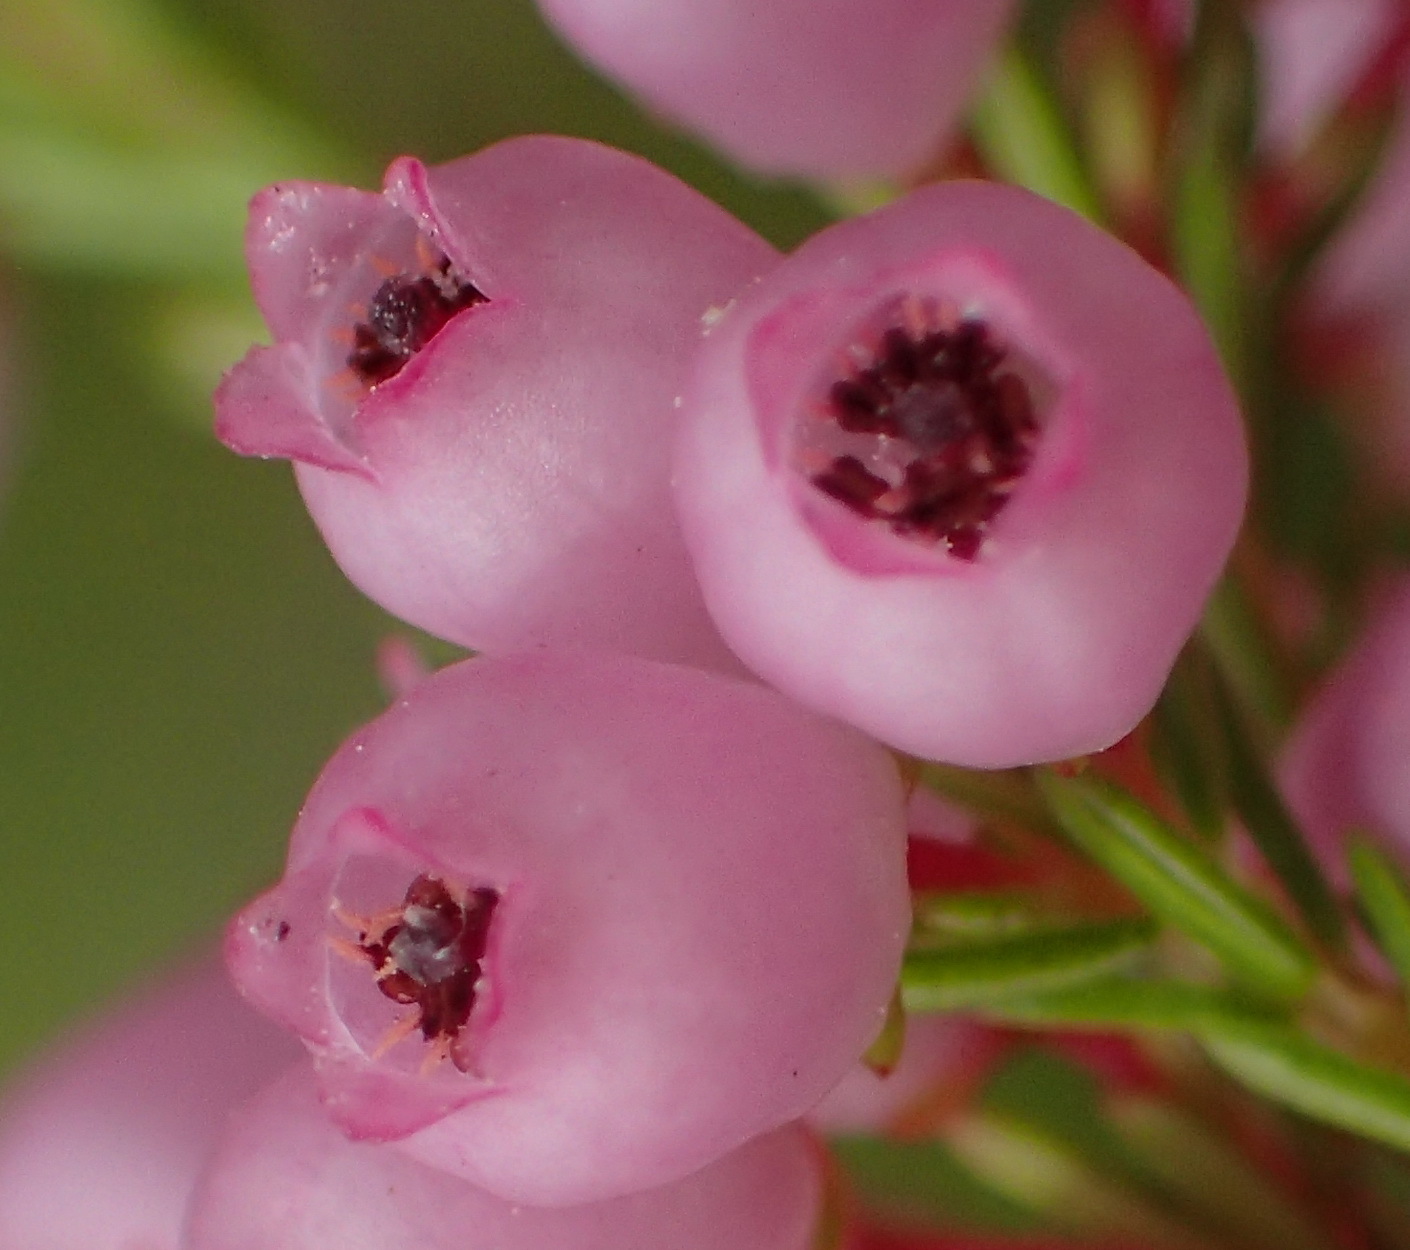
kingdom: Plantae
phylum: Tracheophyta
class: Magnoliopsida
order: Ericales
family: Ericaceae
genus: Erica
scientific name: Erica gracilis
